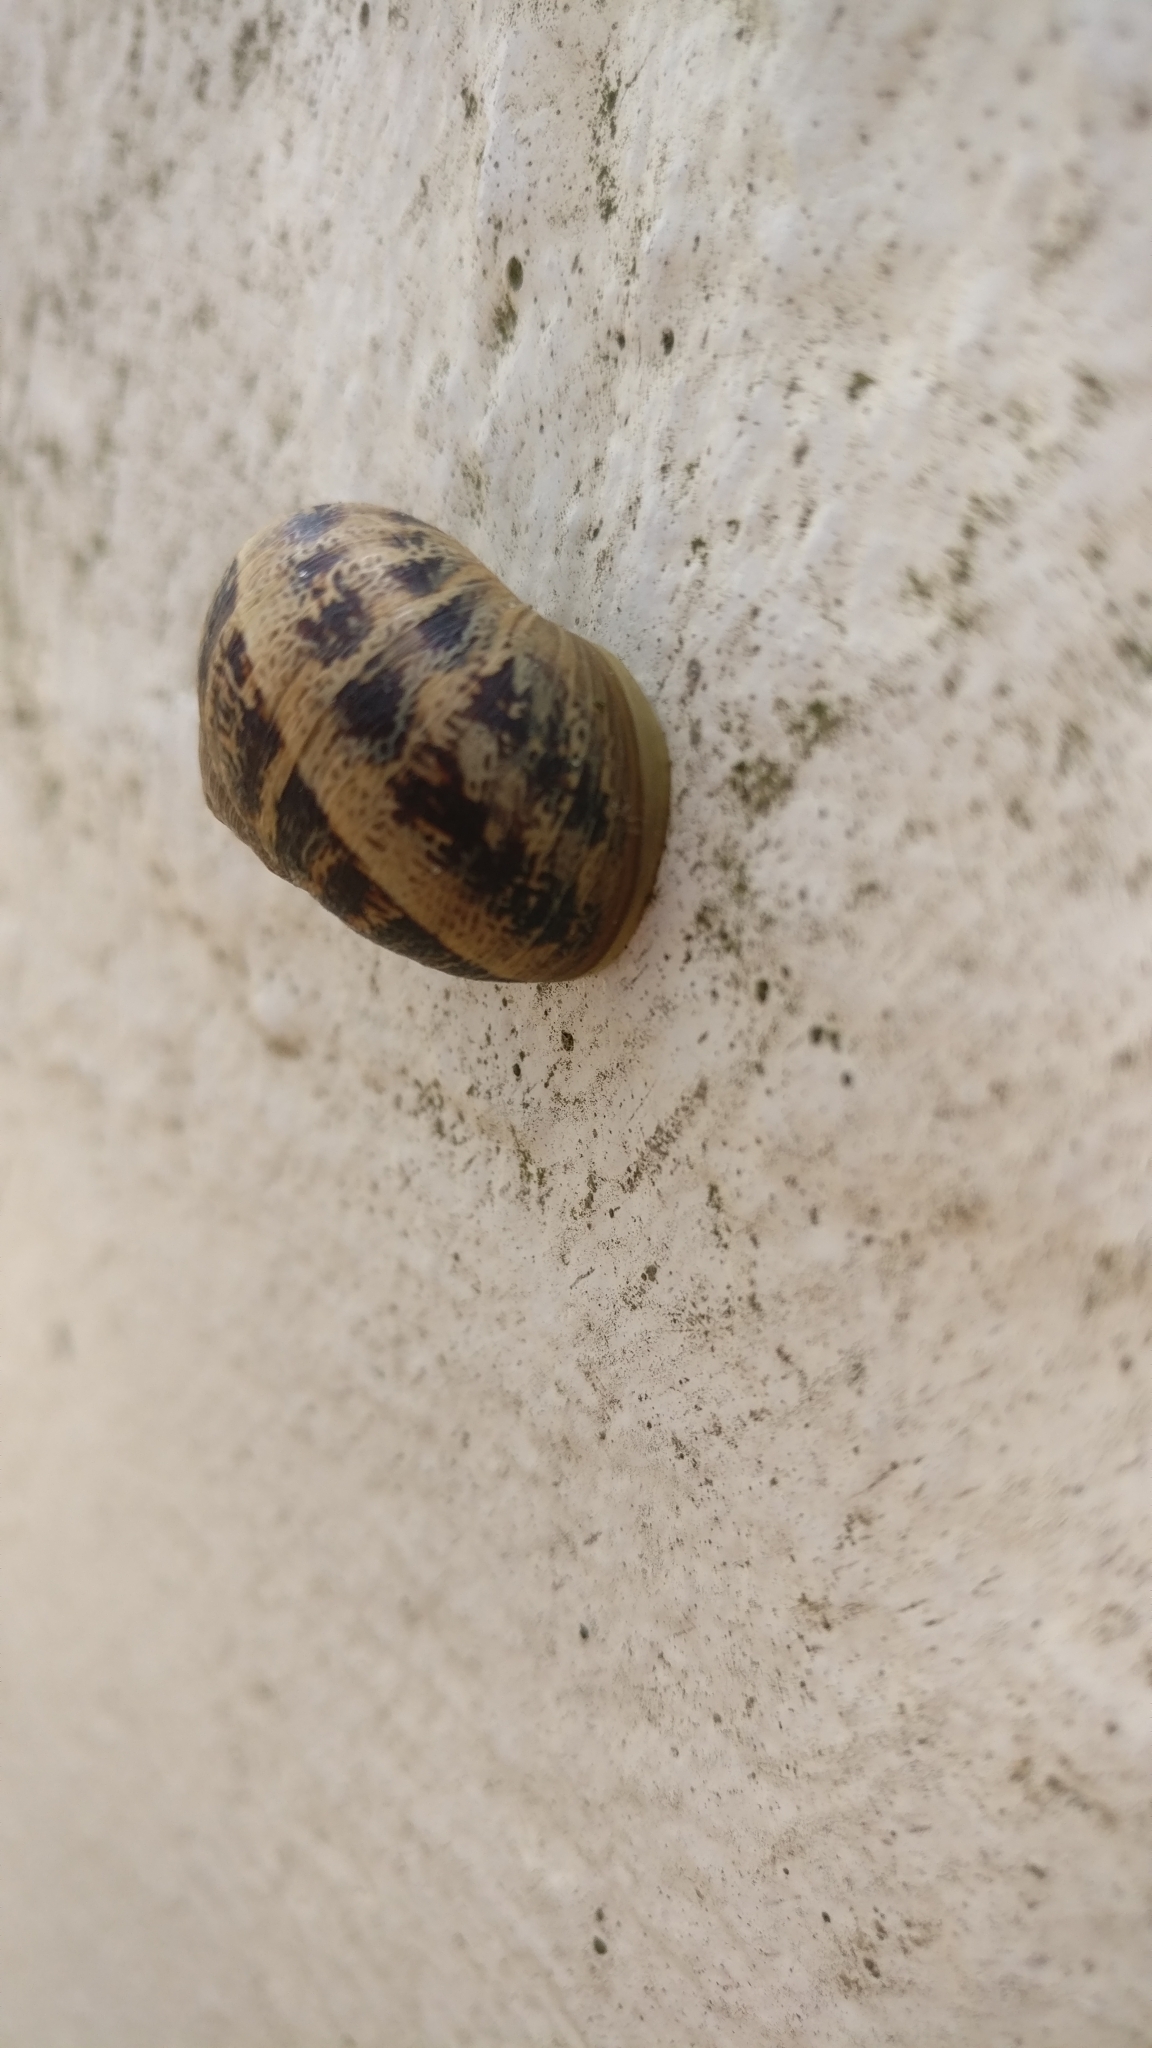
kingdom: Animalia
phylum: Mollusca
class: Gastropoda
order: Stylommatophora
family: Helicidae
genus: Cornu
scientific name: Cornu aspersum
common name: Brown garden snail
